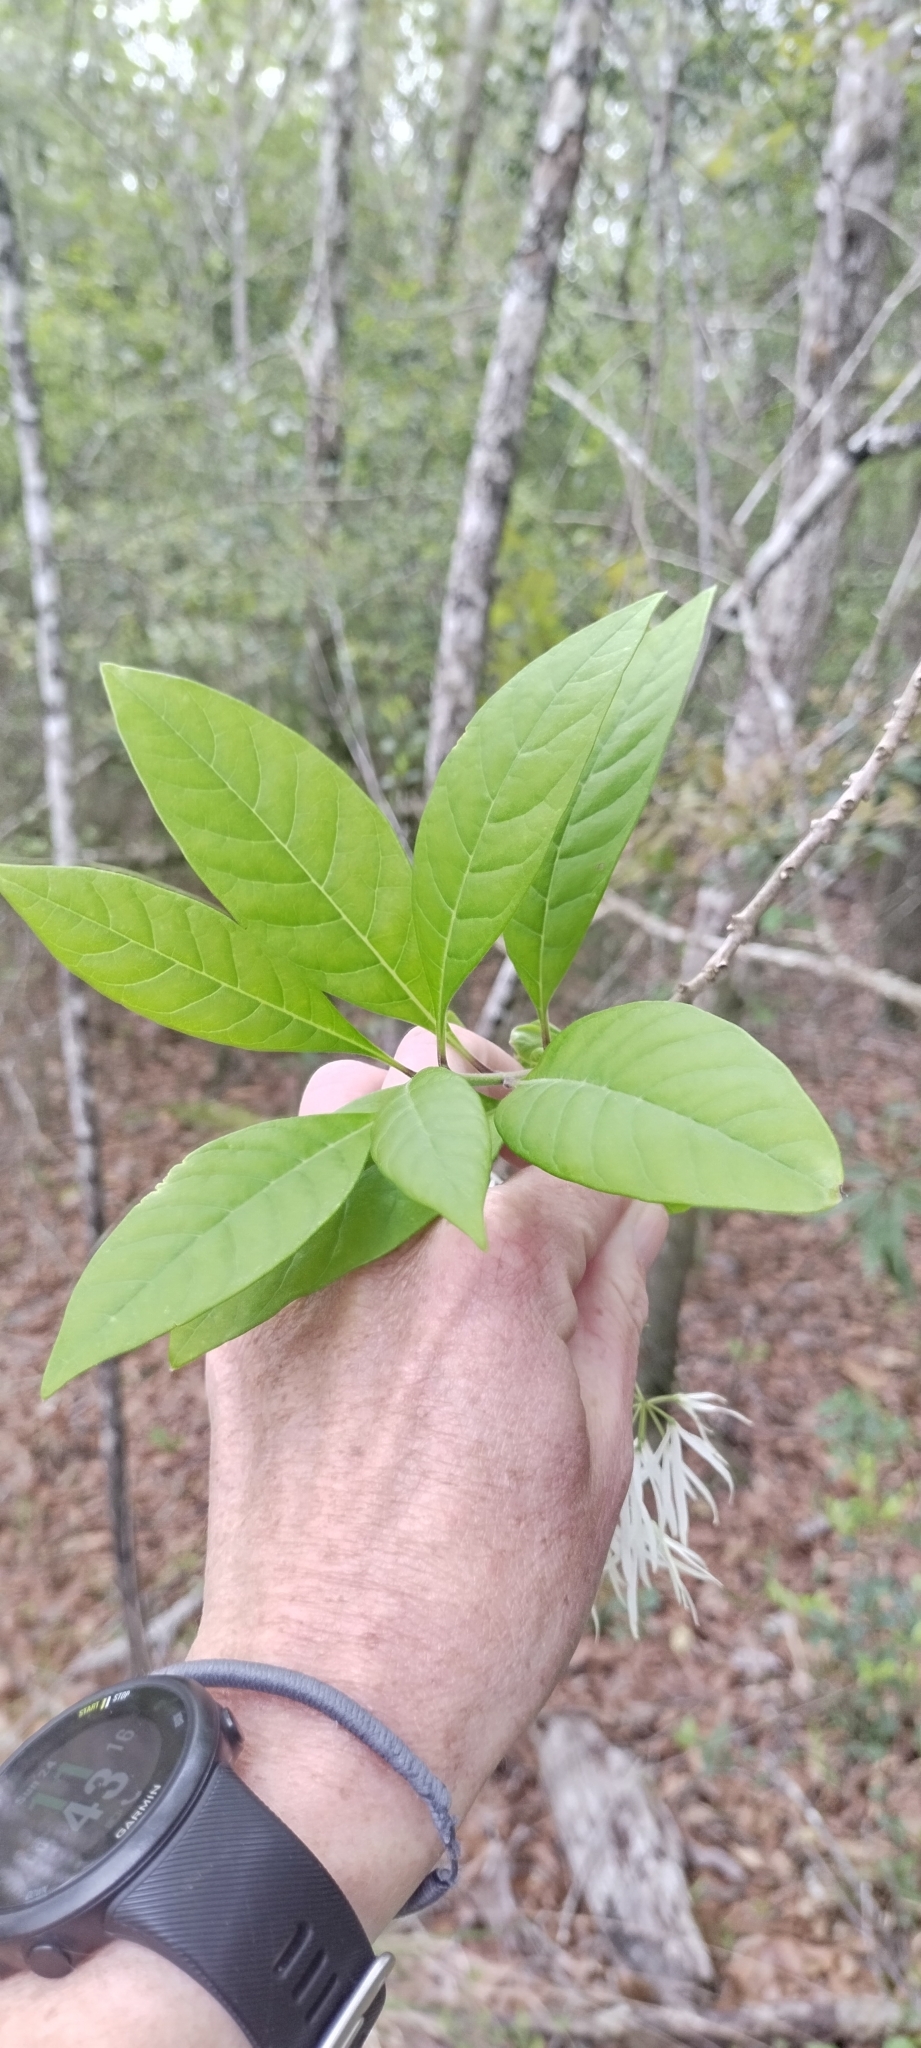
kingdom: Plantae
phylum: Tracheophyta
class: Magnoliopsida
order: Lamiales
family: Oleaceae
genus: Chionanthus
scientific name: Chionanthus virginicus
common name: American fringetree
